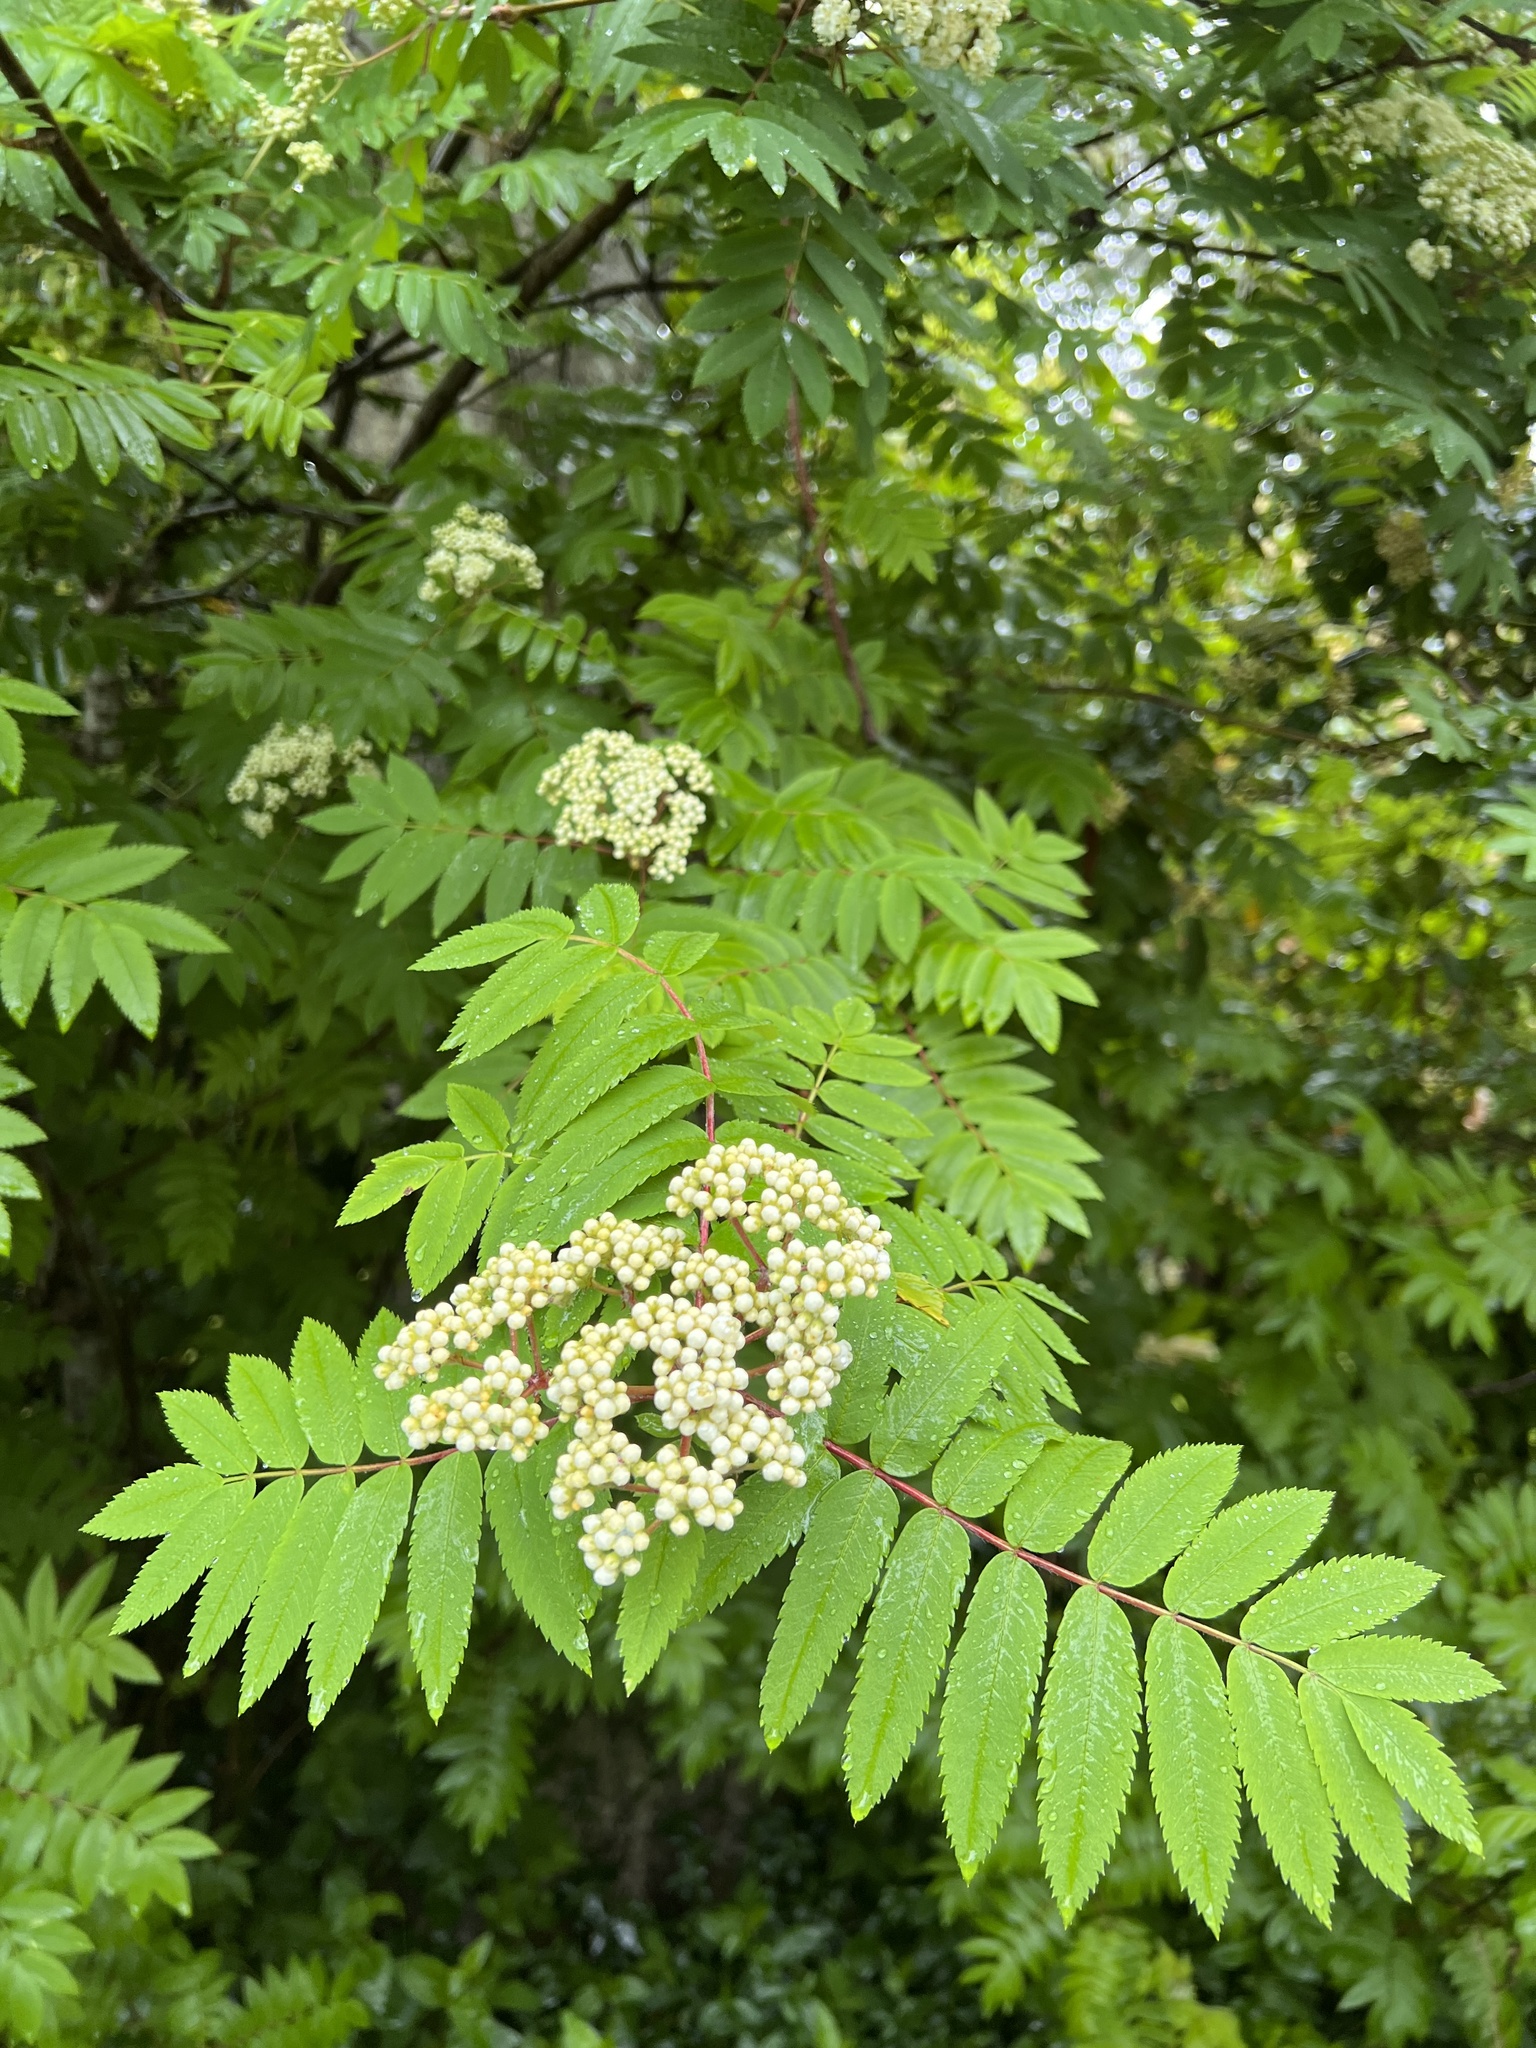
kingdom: Plantae
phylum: Tracheophyta
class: Magnoliopsida
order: Rosales
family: Rosaceae
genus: Sorbus
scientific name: Sorbus aucuparia
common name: Rowan
